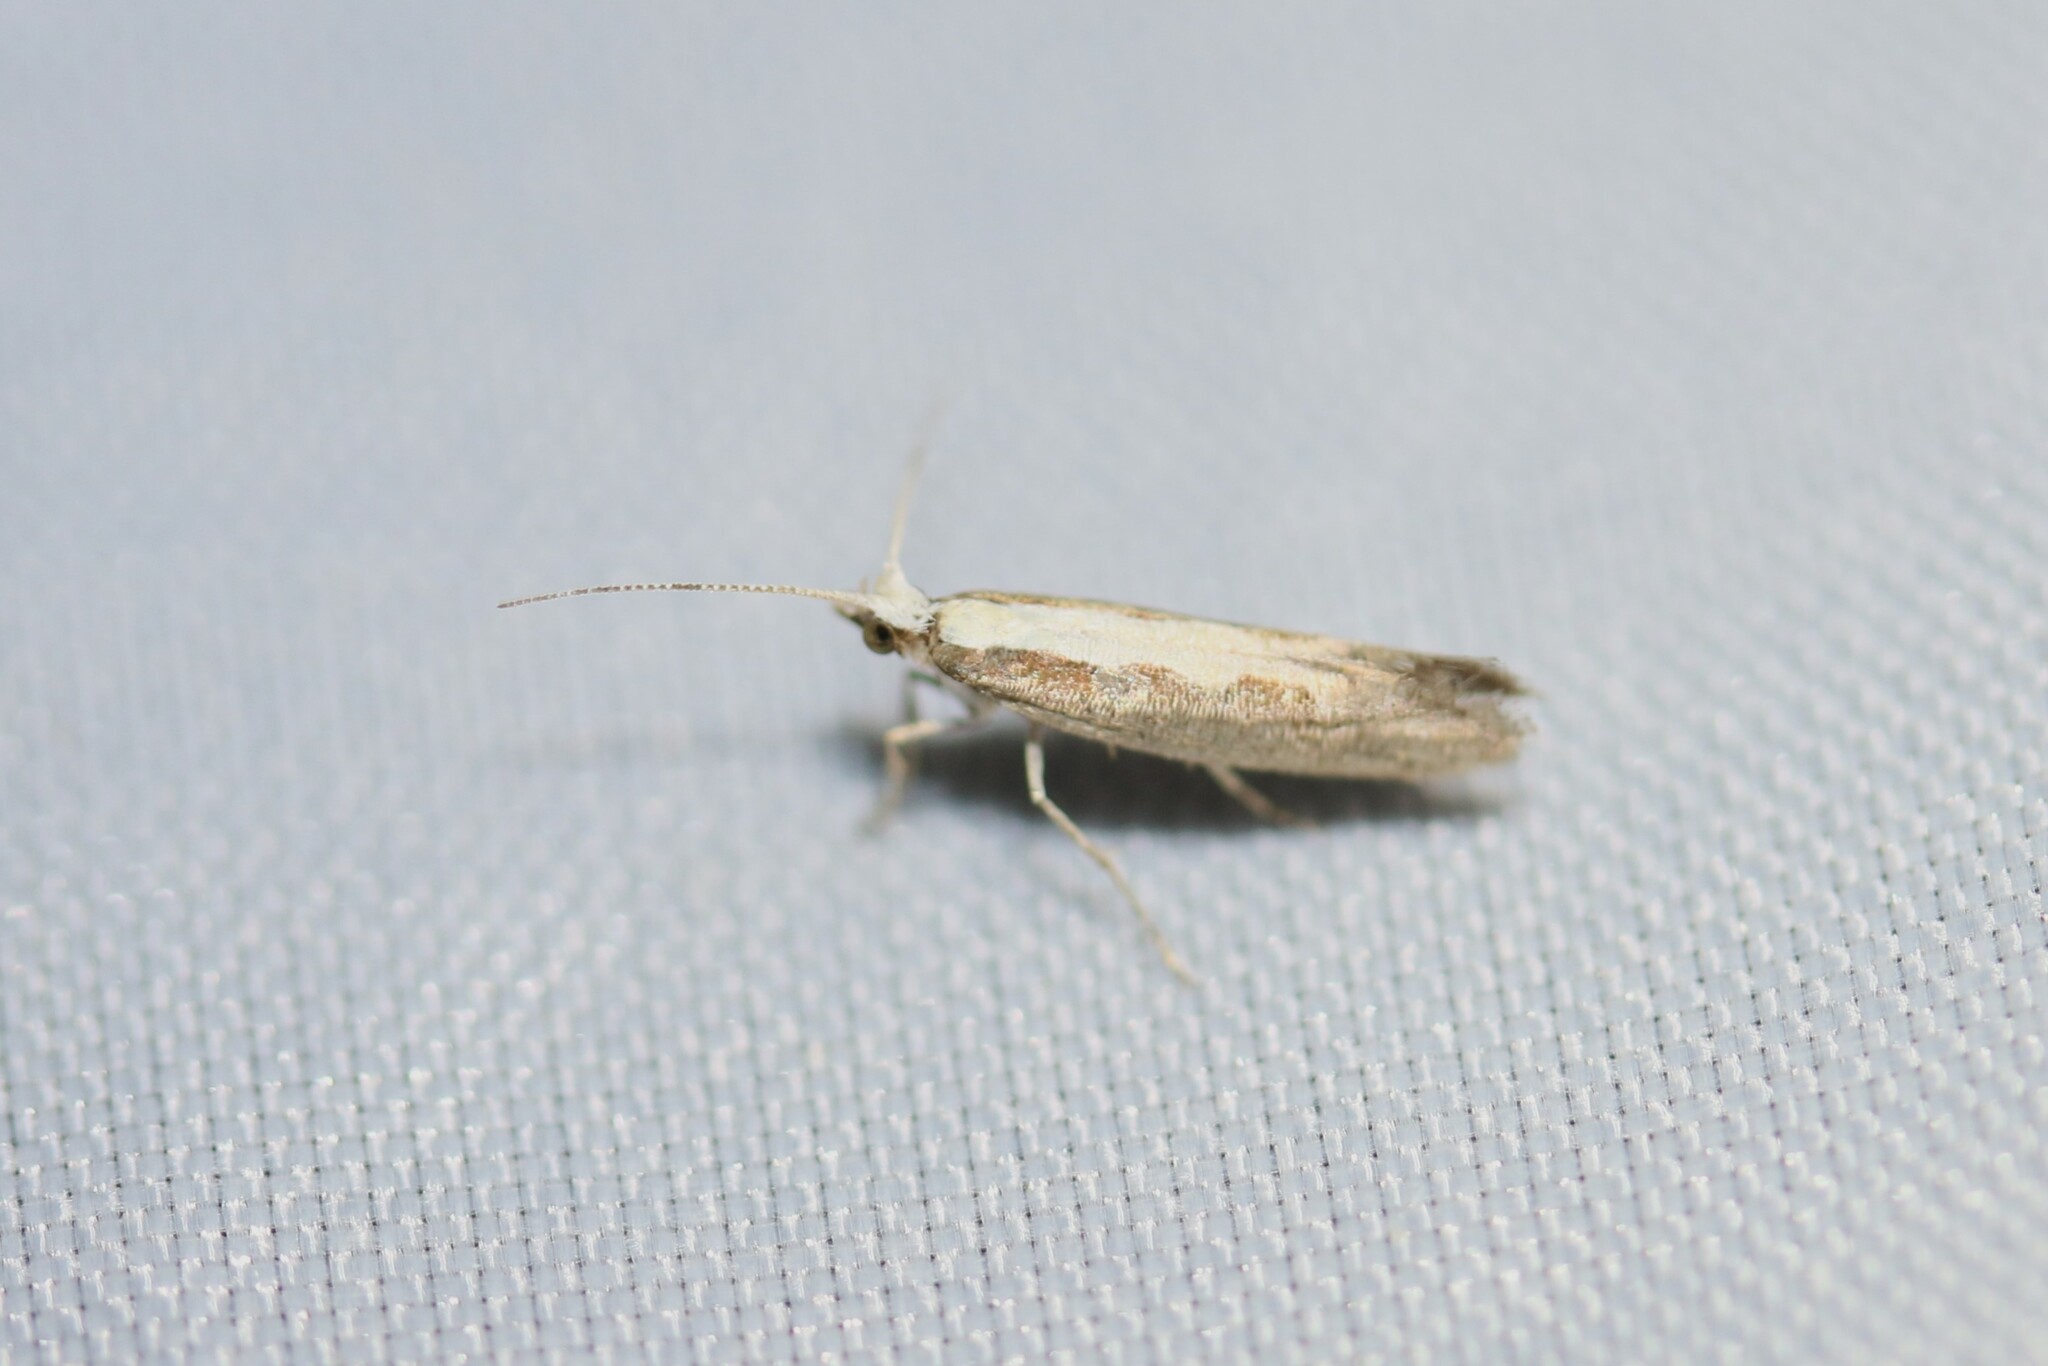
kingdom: Animalia
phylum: Arthropoda
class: Insecta
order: Lepidoptera
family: Plutellidae
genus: Plutella
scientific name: Plutella xylostella
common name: Diamond-back moth
